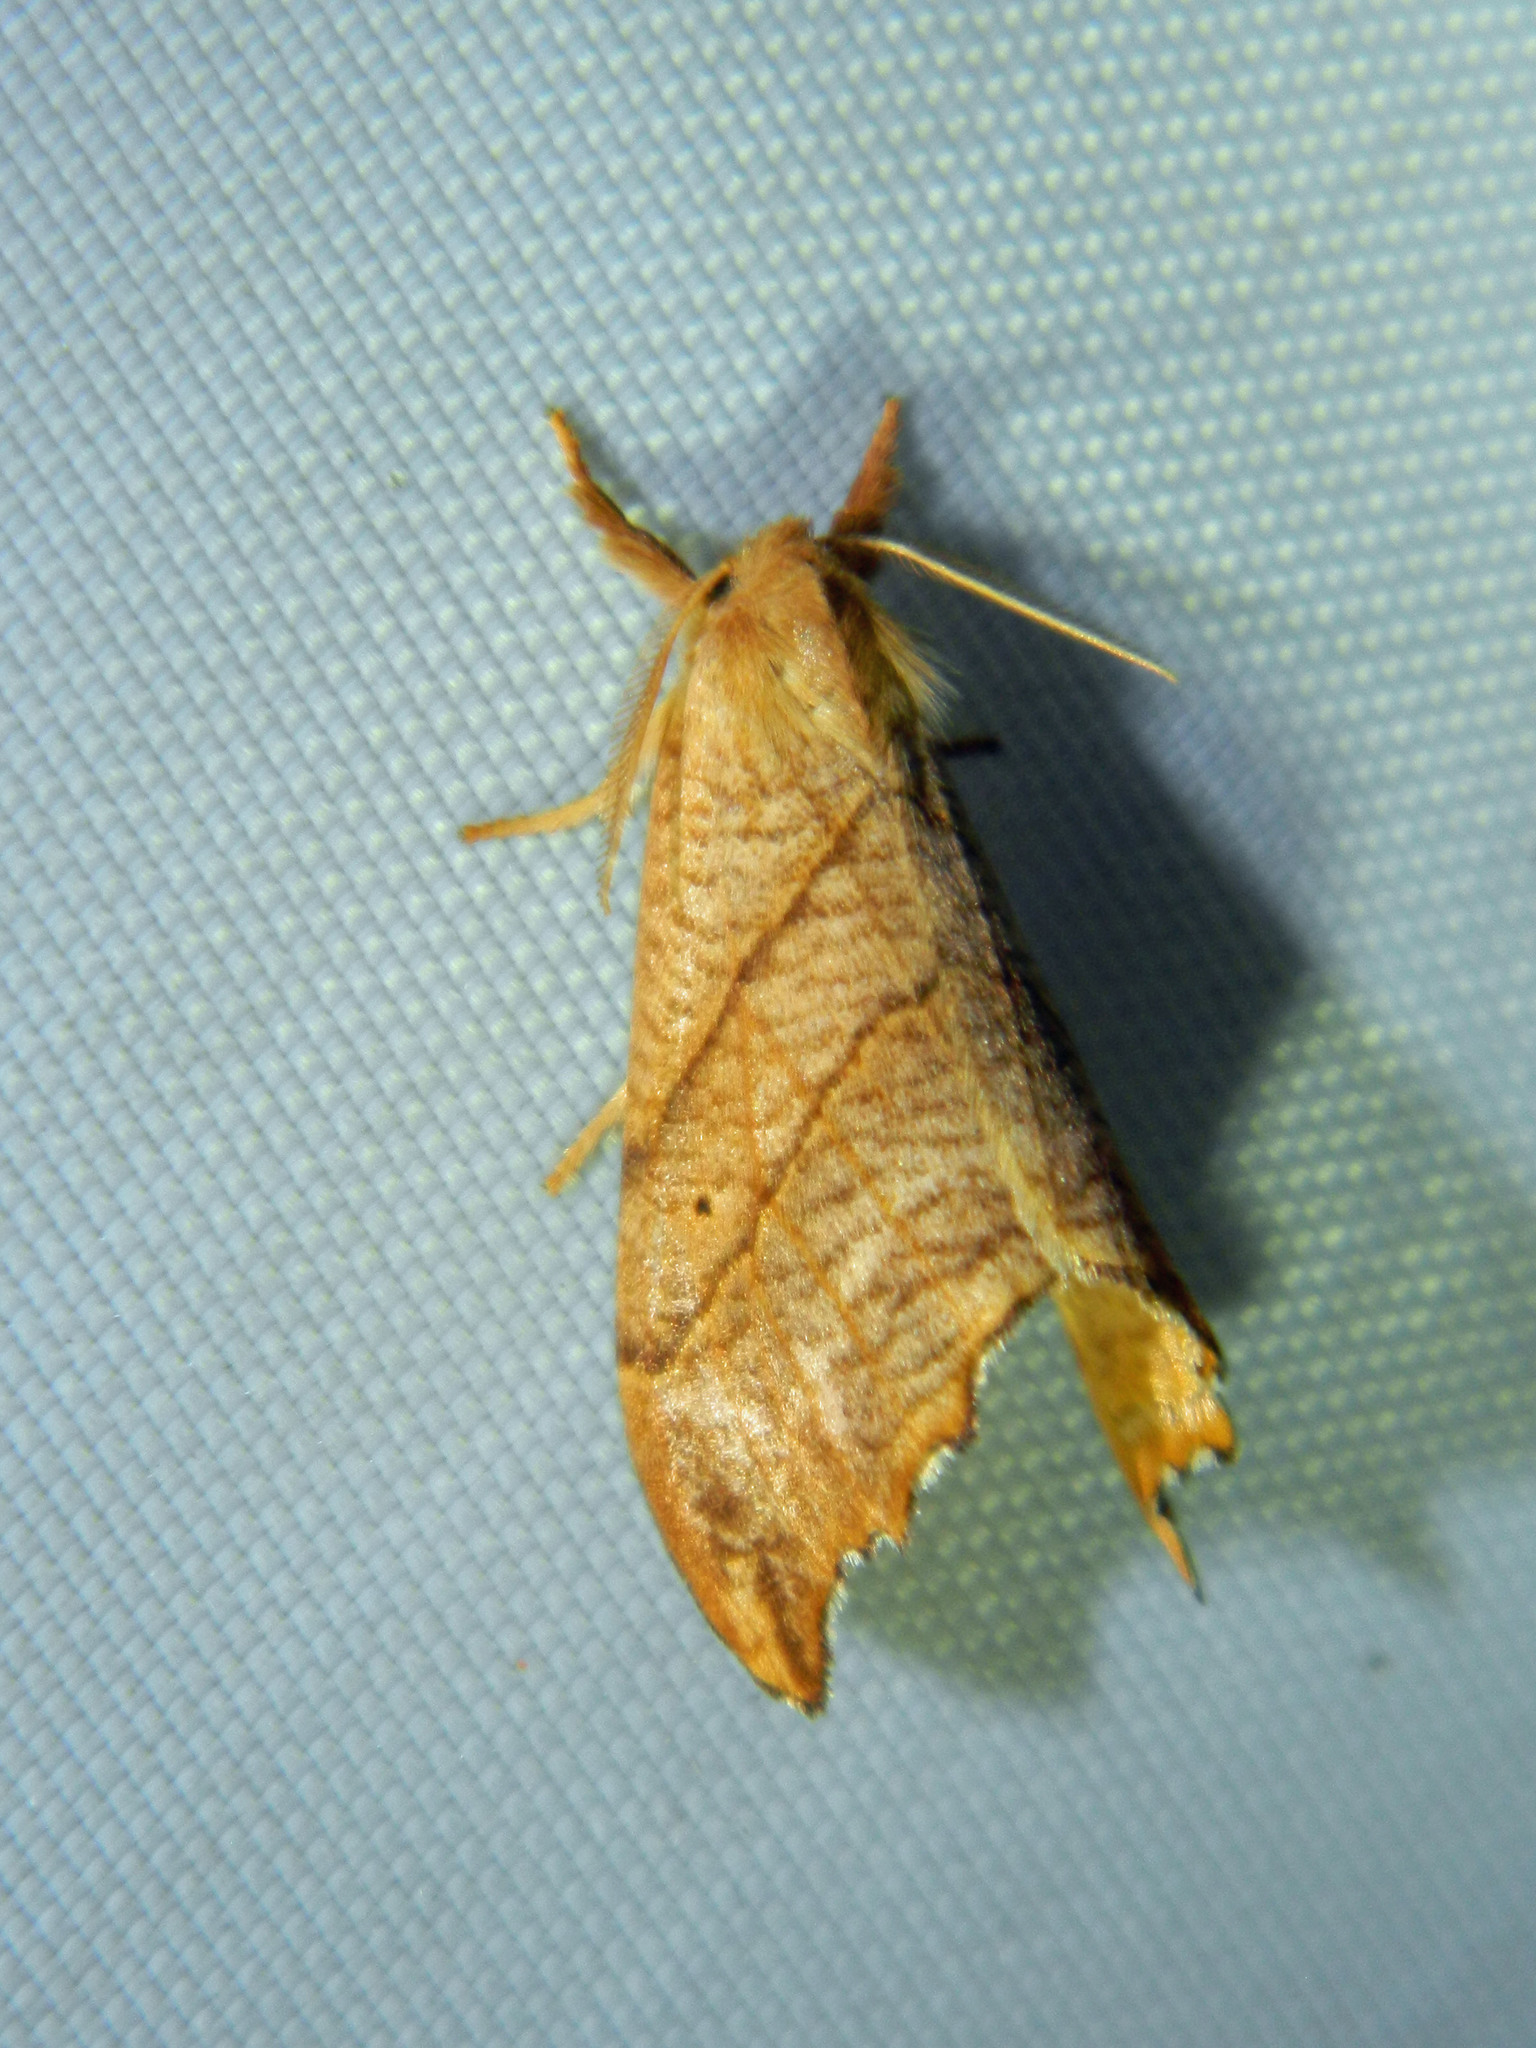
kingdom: Animalia
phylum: Arthropoda
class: Insecta
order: Lepidoptera
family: Drepanidae
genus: Falcaria
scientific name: Falcaria bilineata
